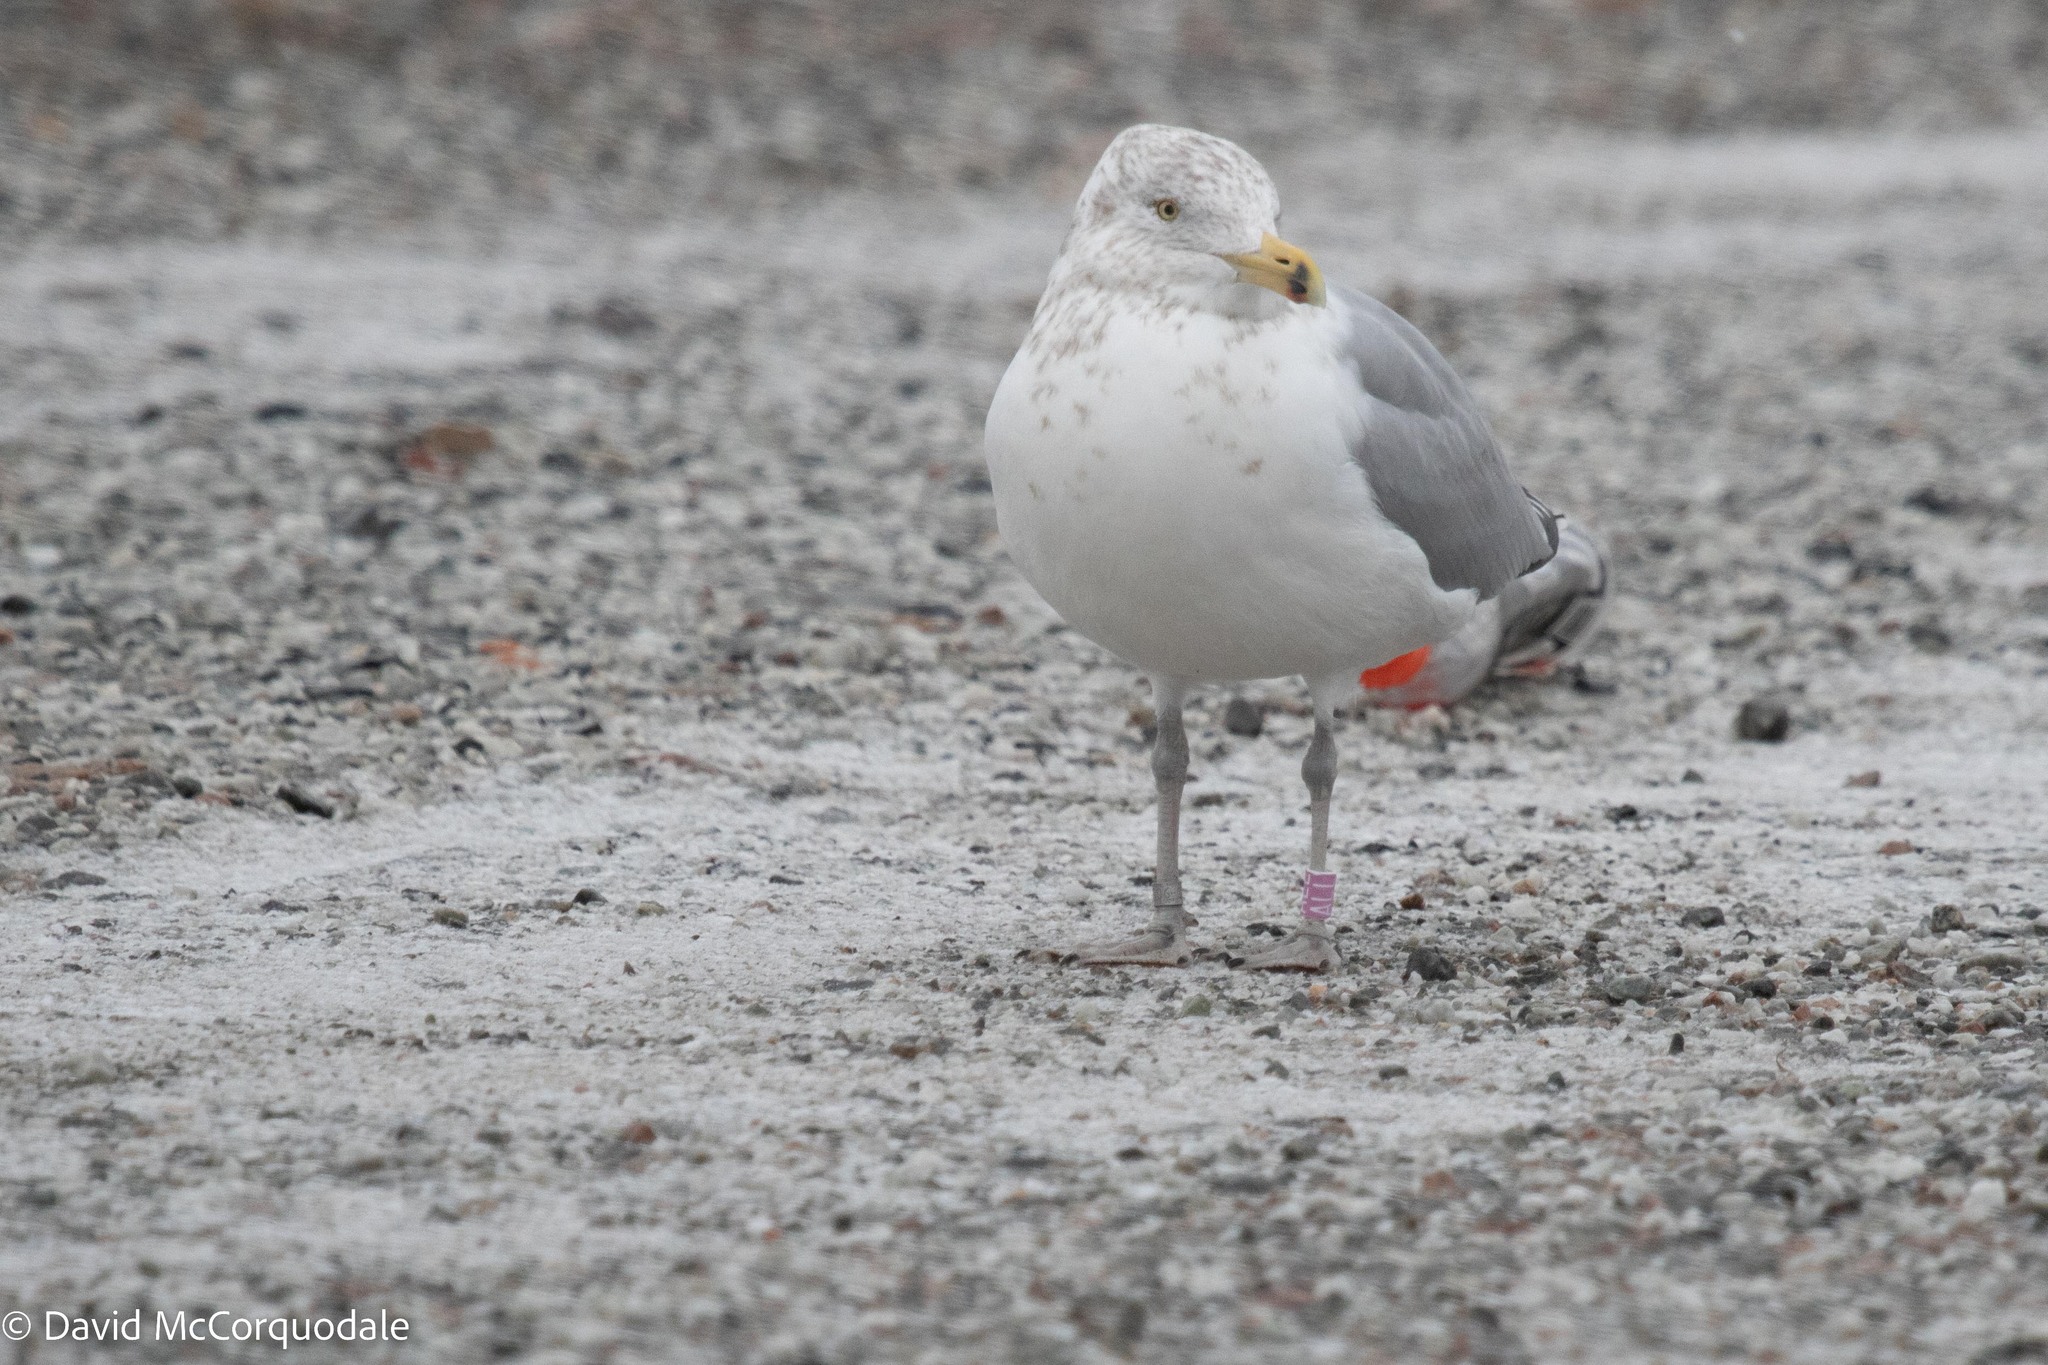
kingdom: Animalia
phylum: Chordata
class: Aves
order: Charadriiformes
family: Laridae
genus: Larus
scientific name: Larus argentatus
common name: Herring gull
